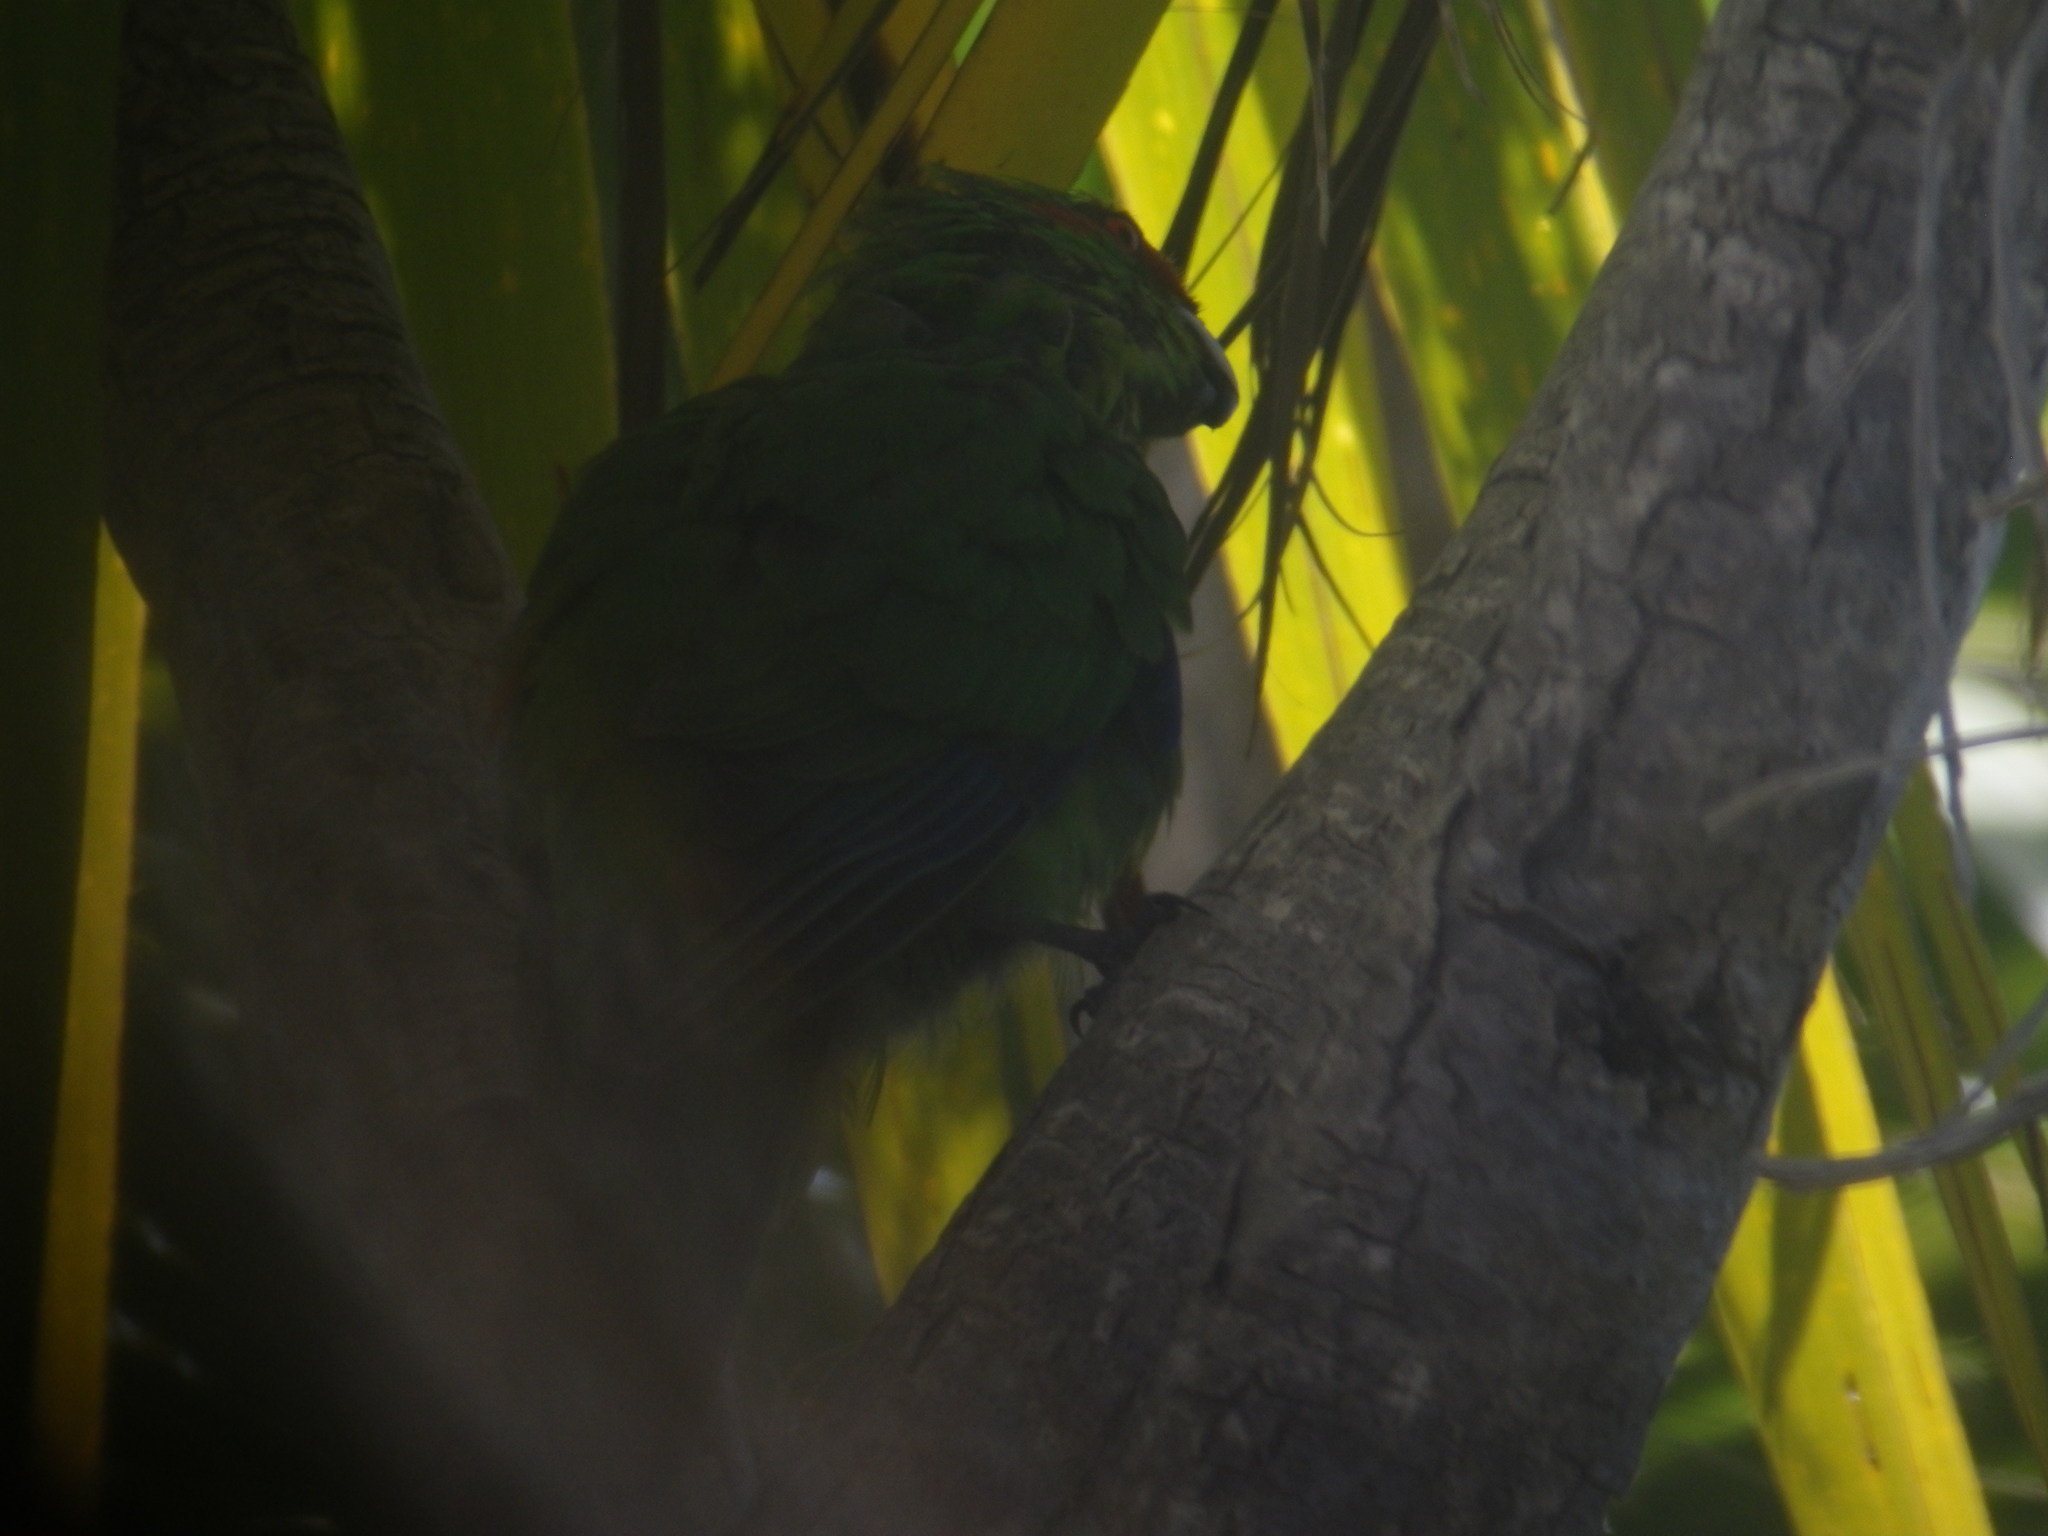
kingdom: Animalia
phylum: Chordata
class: Aves
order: Psittaciformes
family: Psittacidae
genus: Cyanoramphus
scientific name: Cyanoramphus novaezelandiae
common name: Red-fronted parakeet
